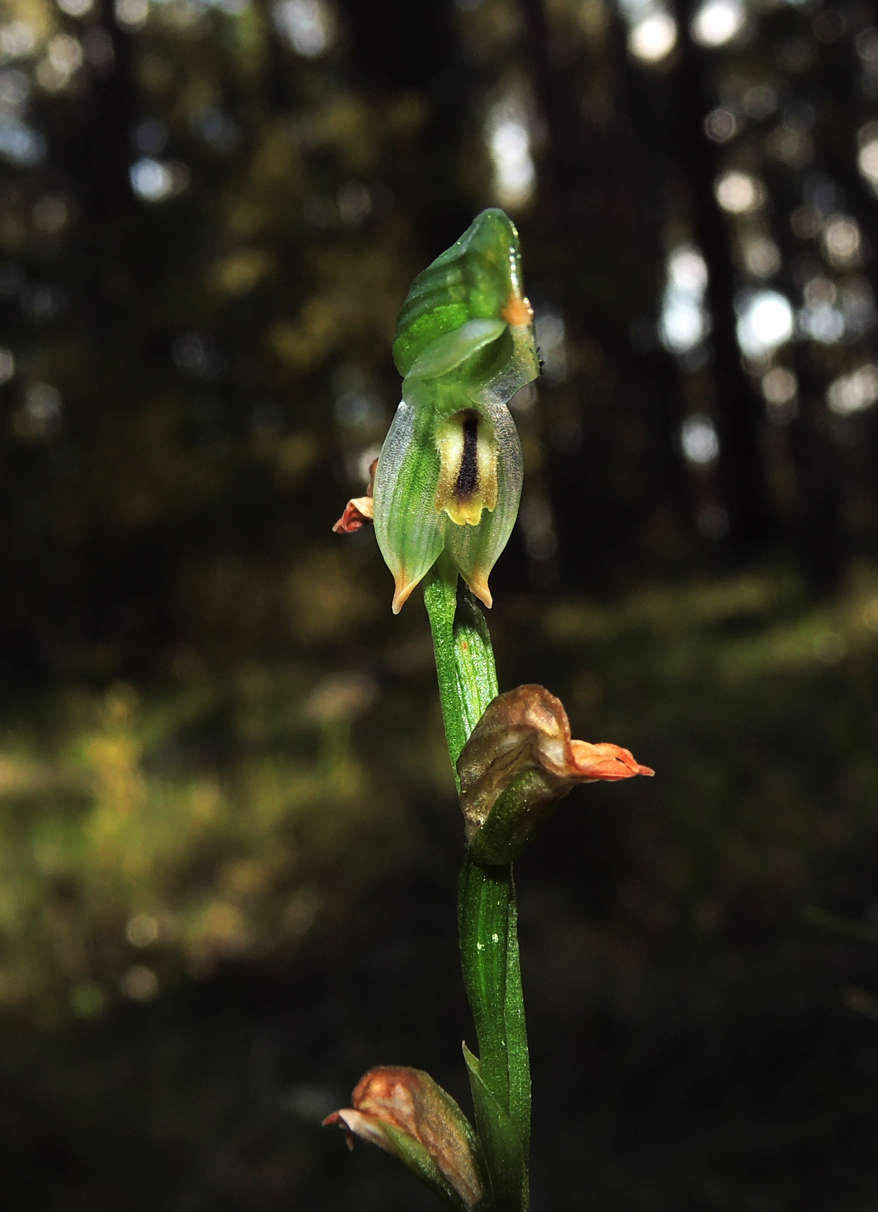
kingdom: Plantae
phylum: Tracheophyta
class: Liliopsida
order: Asparagales
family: Orchidaceae
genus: Pterostylis
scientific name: Pterostylis melagramma
